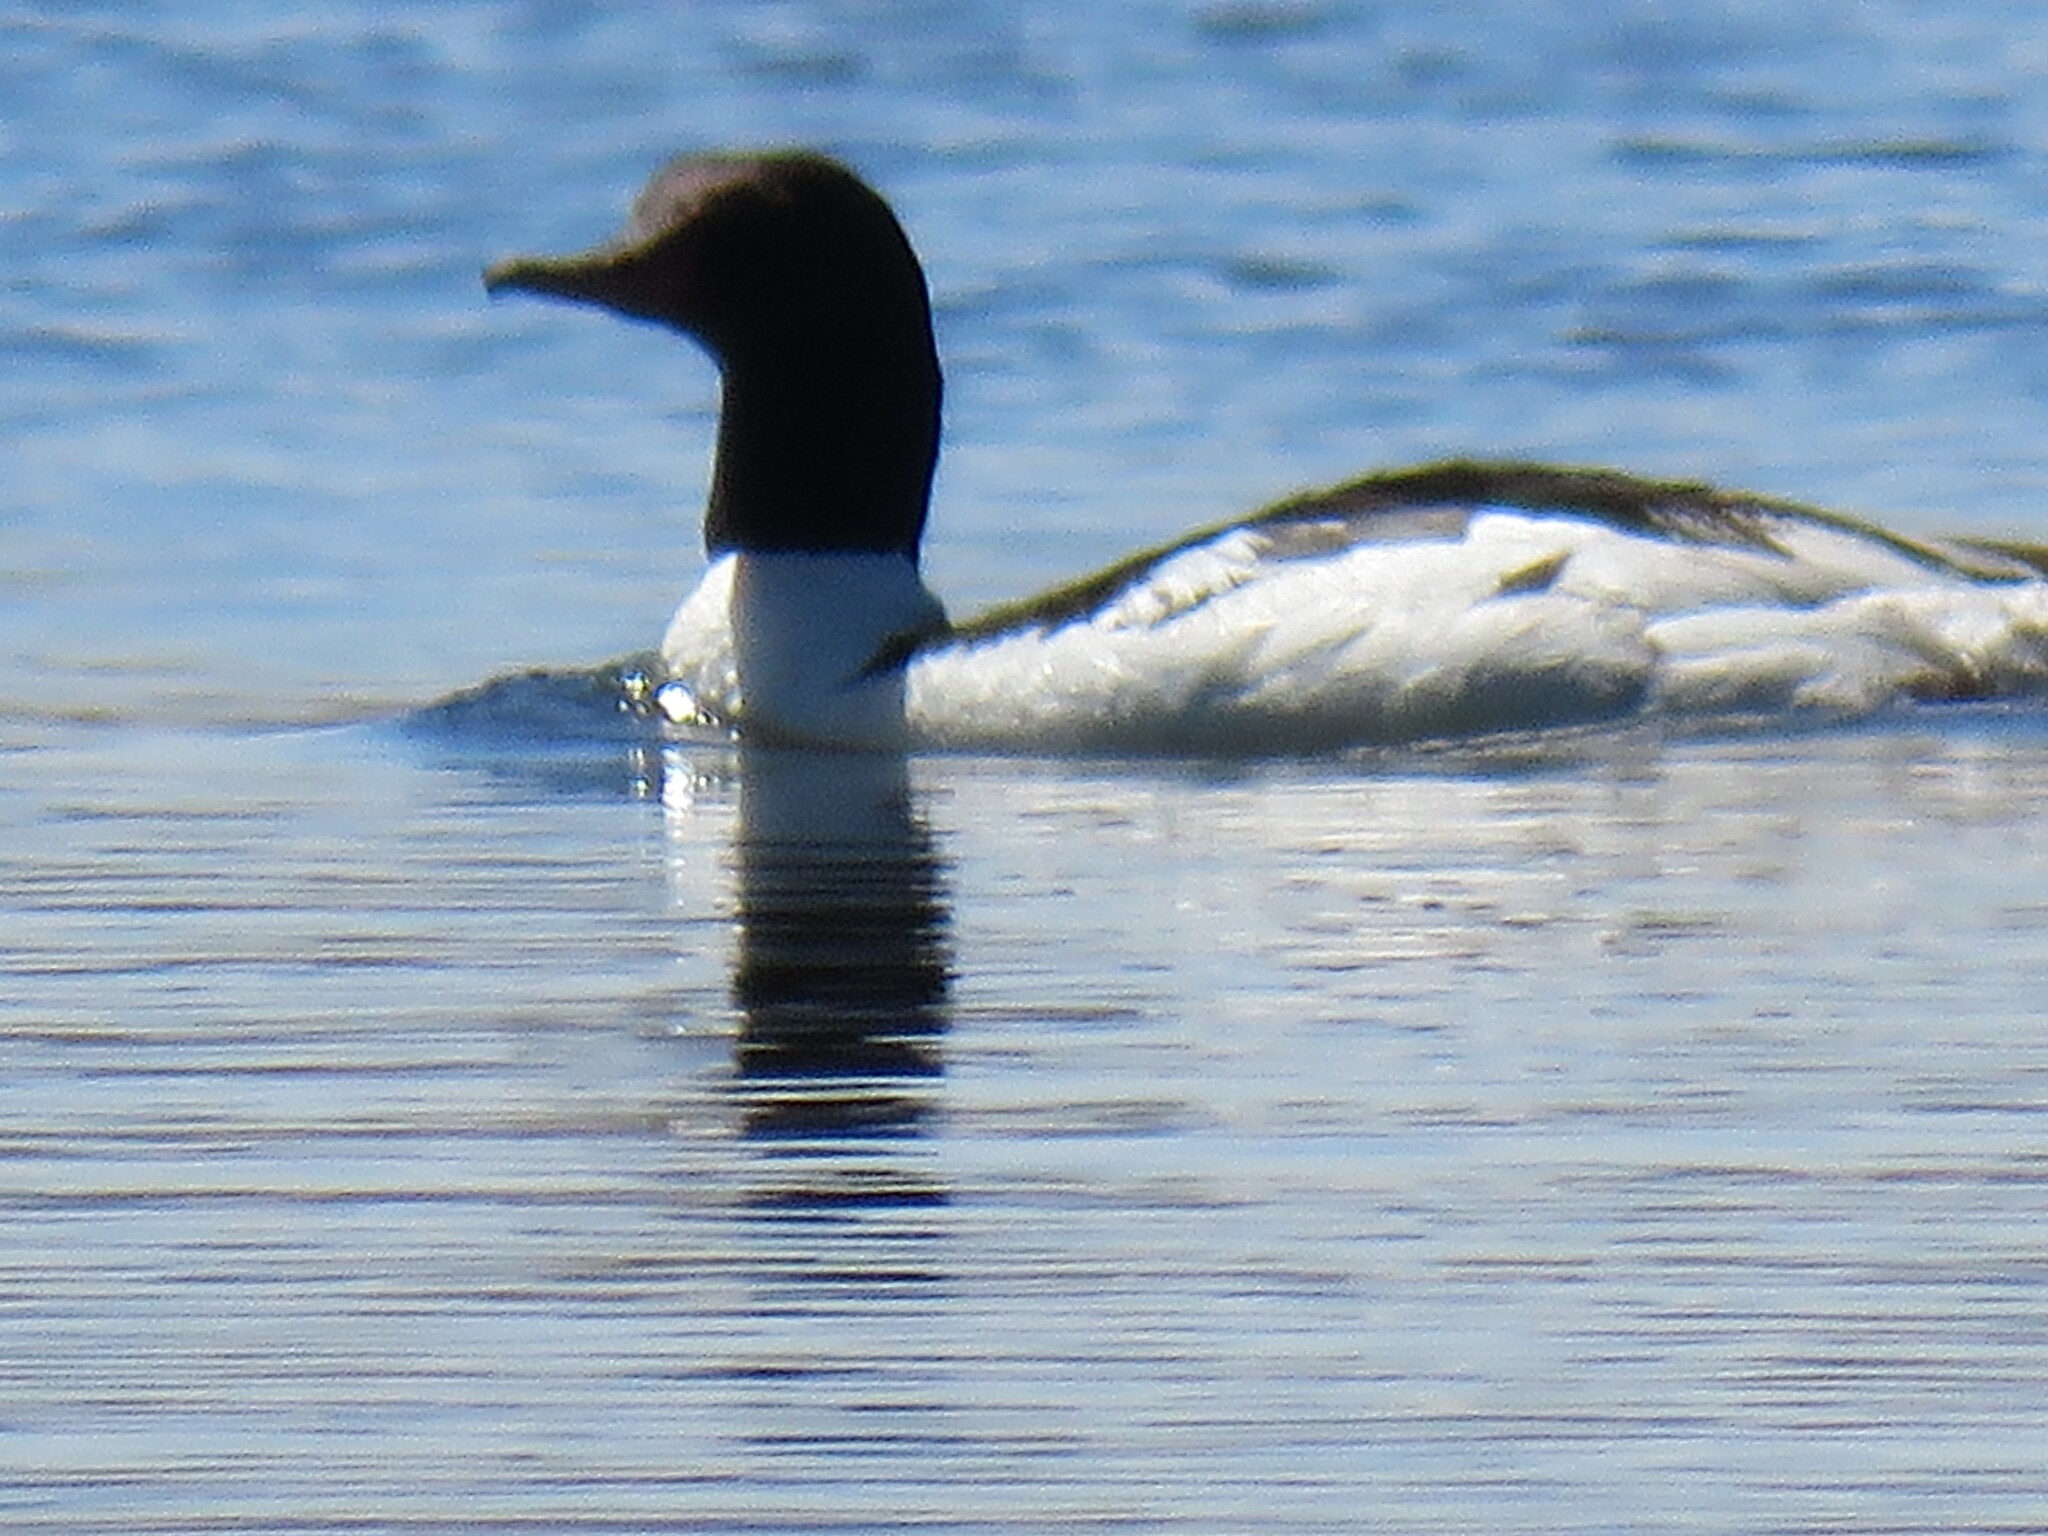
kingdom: Animalia
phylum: Chordata
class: Aves
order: Anseriformes
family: Anatidae
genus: Mergus
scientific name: Mergus merganser
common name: Common merganser
